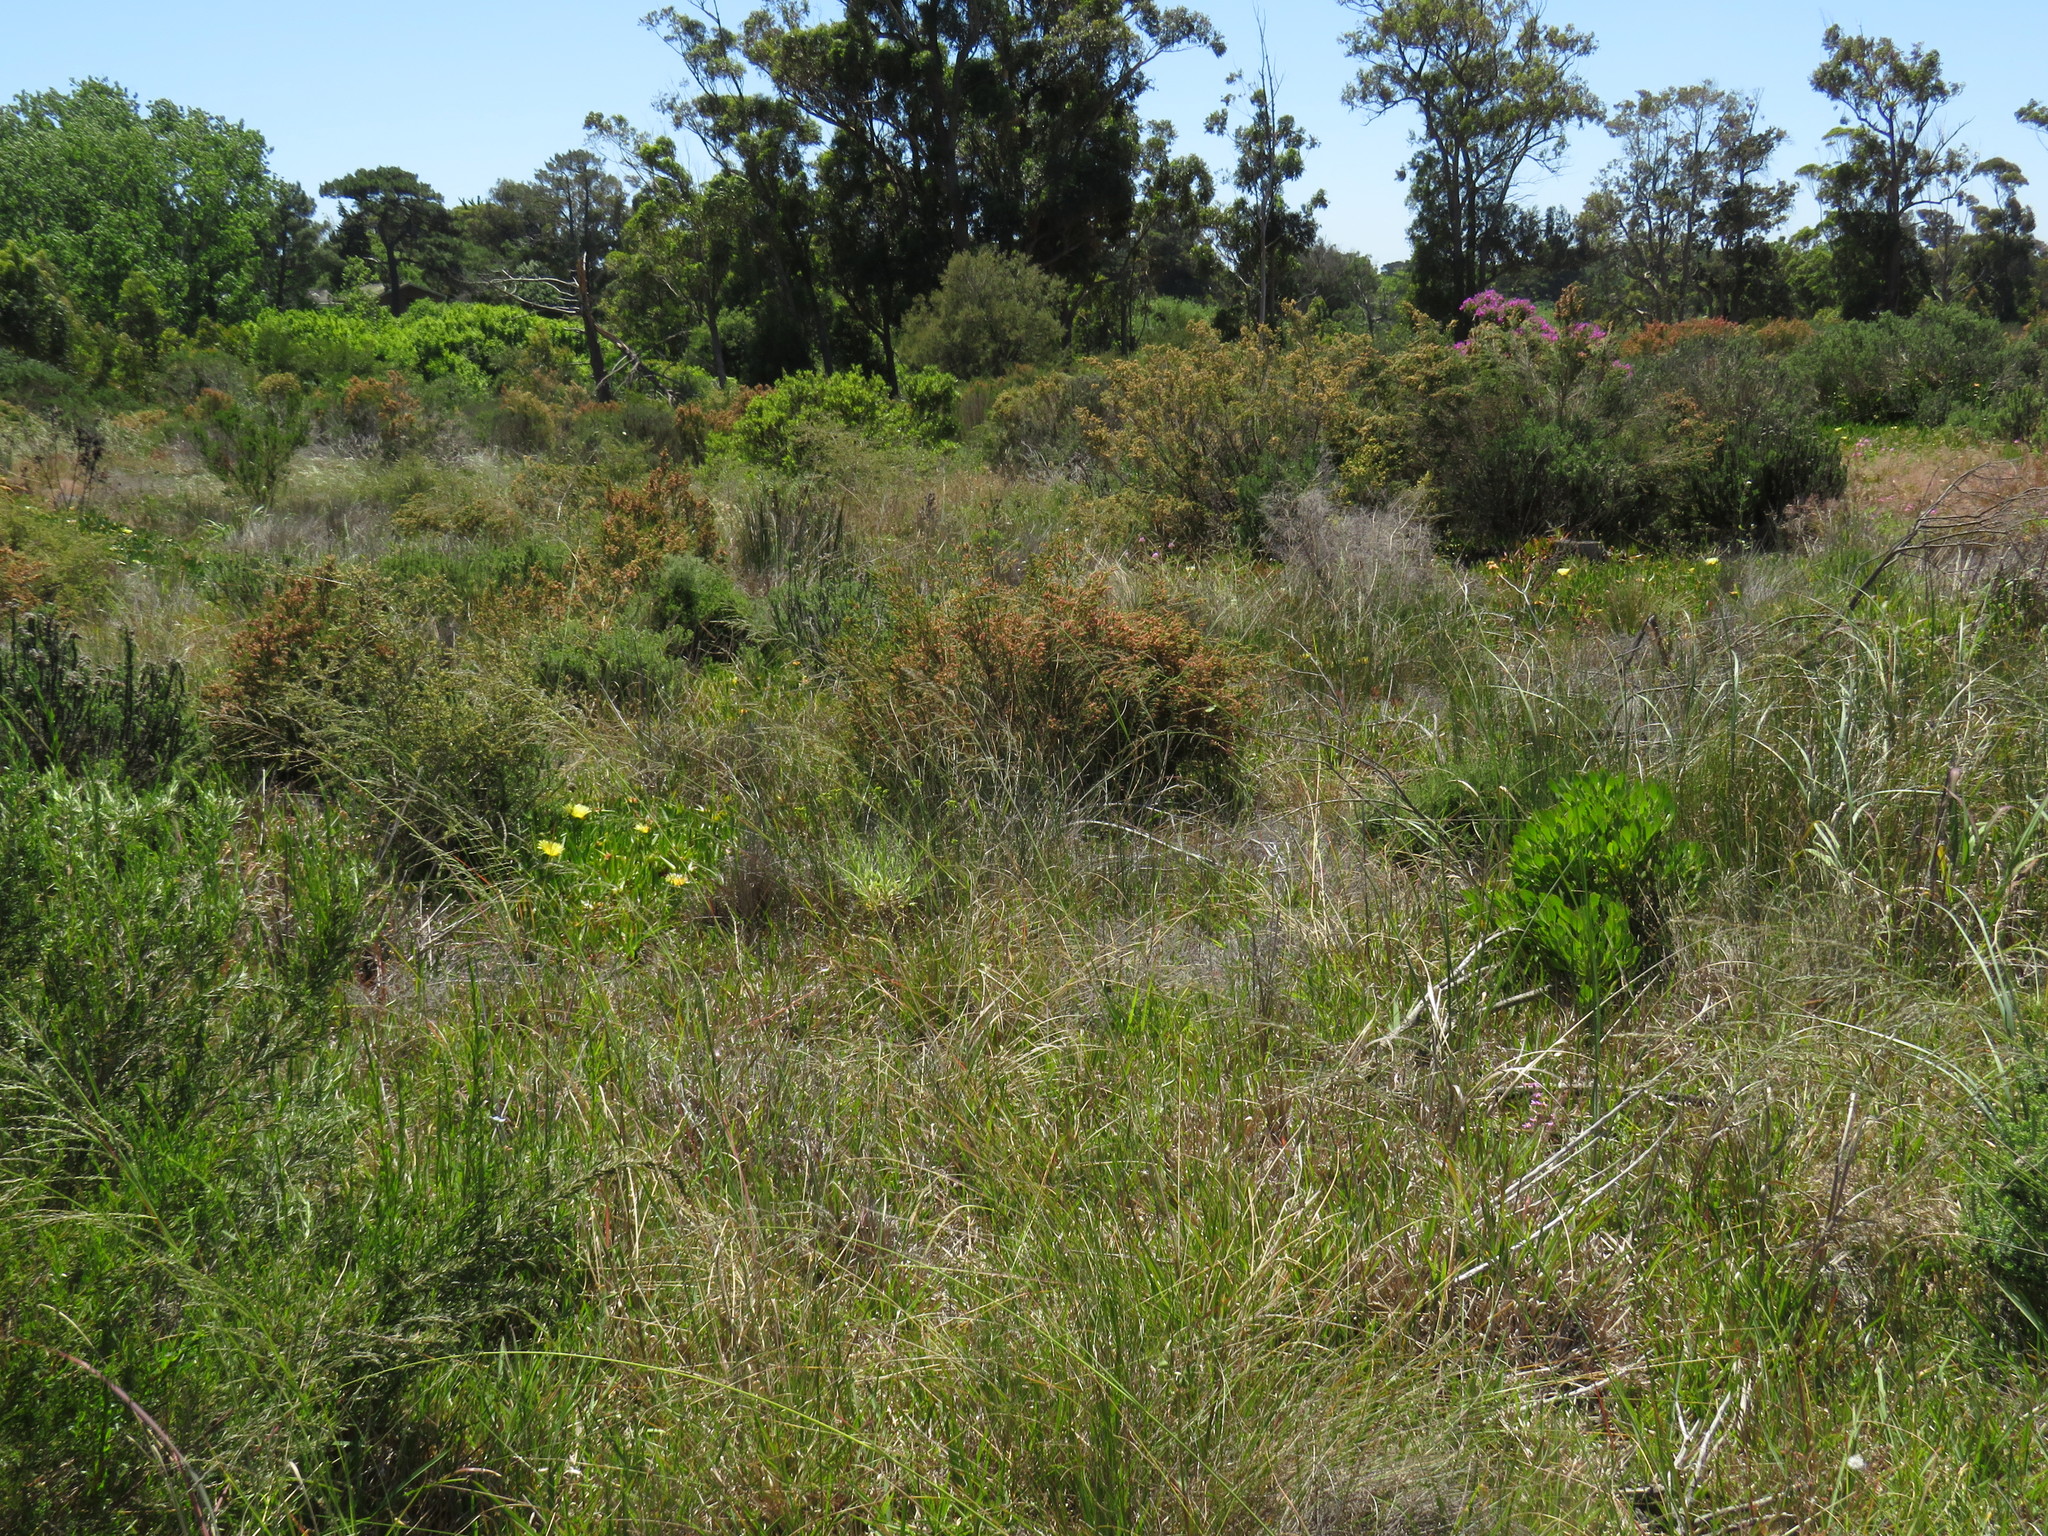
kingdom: Plantae
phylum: Tracheophyta
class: Liliopsida
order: Poales
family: Poaceae
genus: Eragrostis
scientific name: Eragrostis curvula
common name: African love-grass
